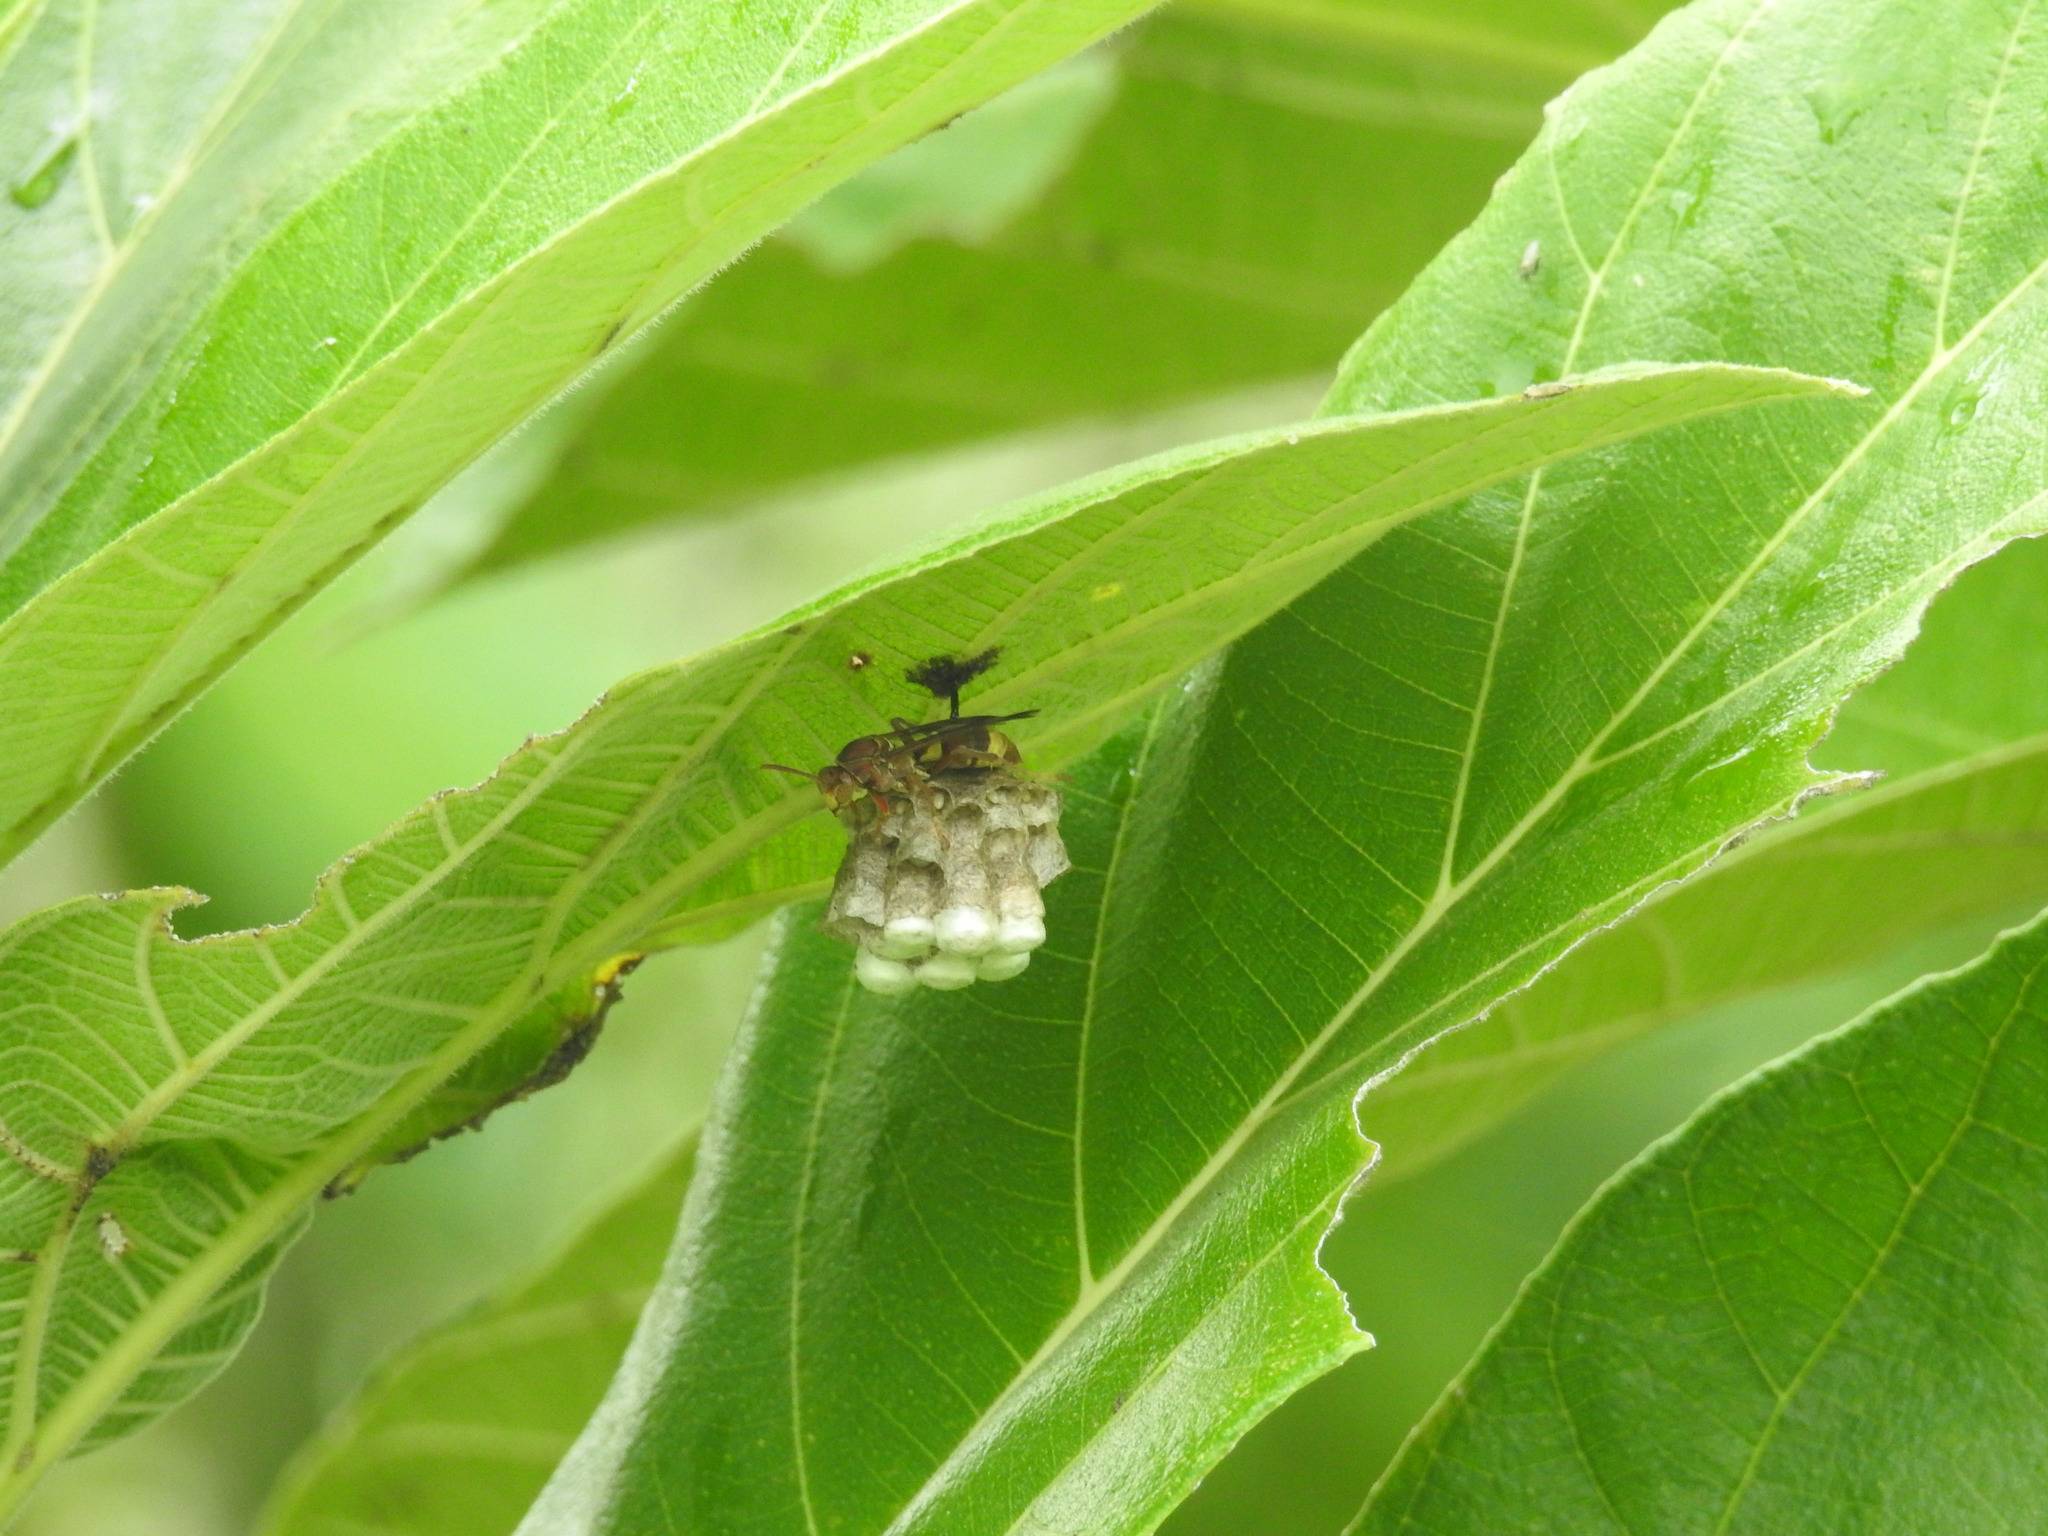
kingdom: Animalia
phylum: Arthropoda
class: Insecta
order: Hymenoptera
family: Eumenidae
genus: Polistes
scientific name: Polistes stigma
